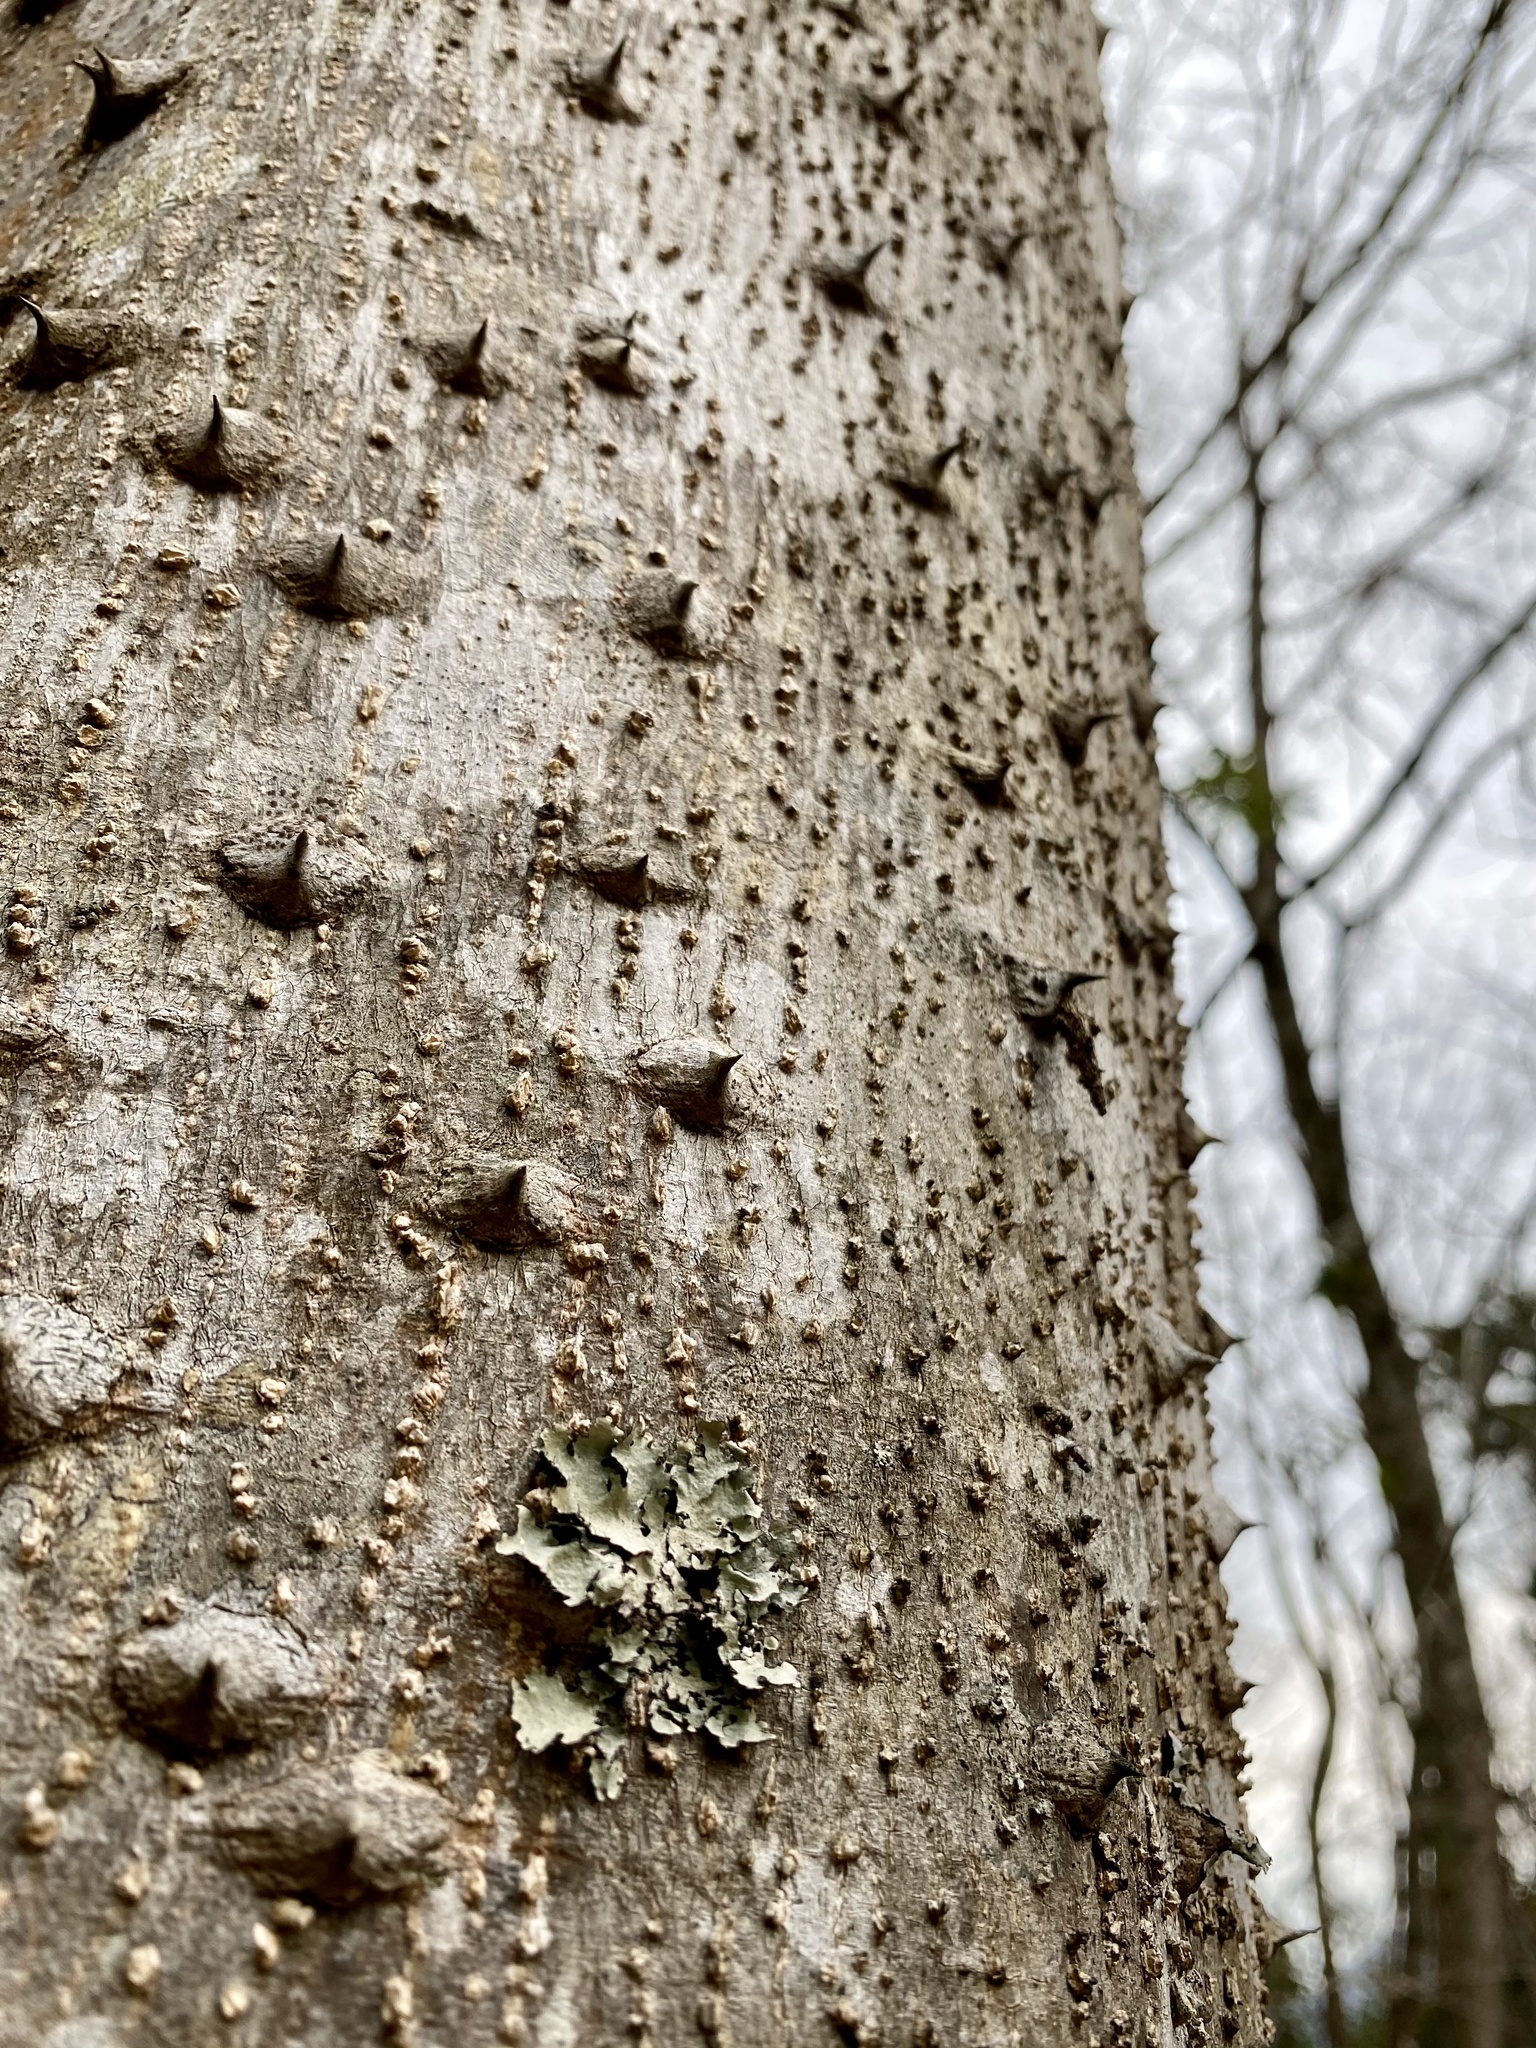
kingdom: Plantae
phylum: Tracheophyta
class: Magnoliopsida
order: Sapindales
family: Rutaceae
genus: Zanthoxylum
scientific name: Zanthoxylum ailanthoides
